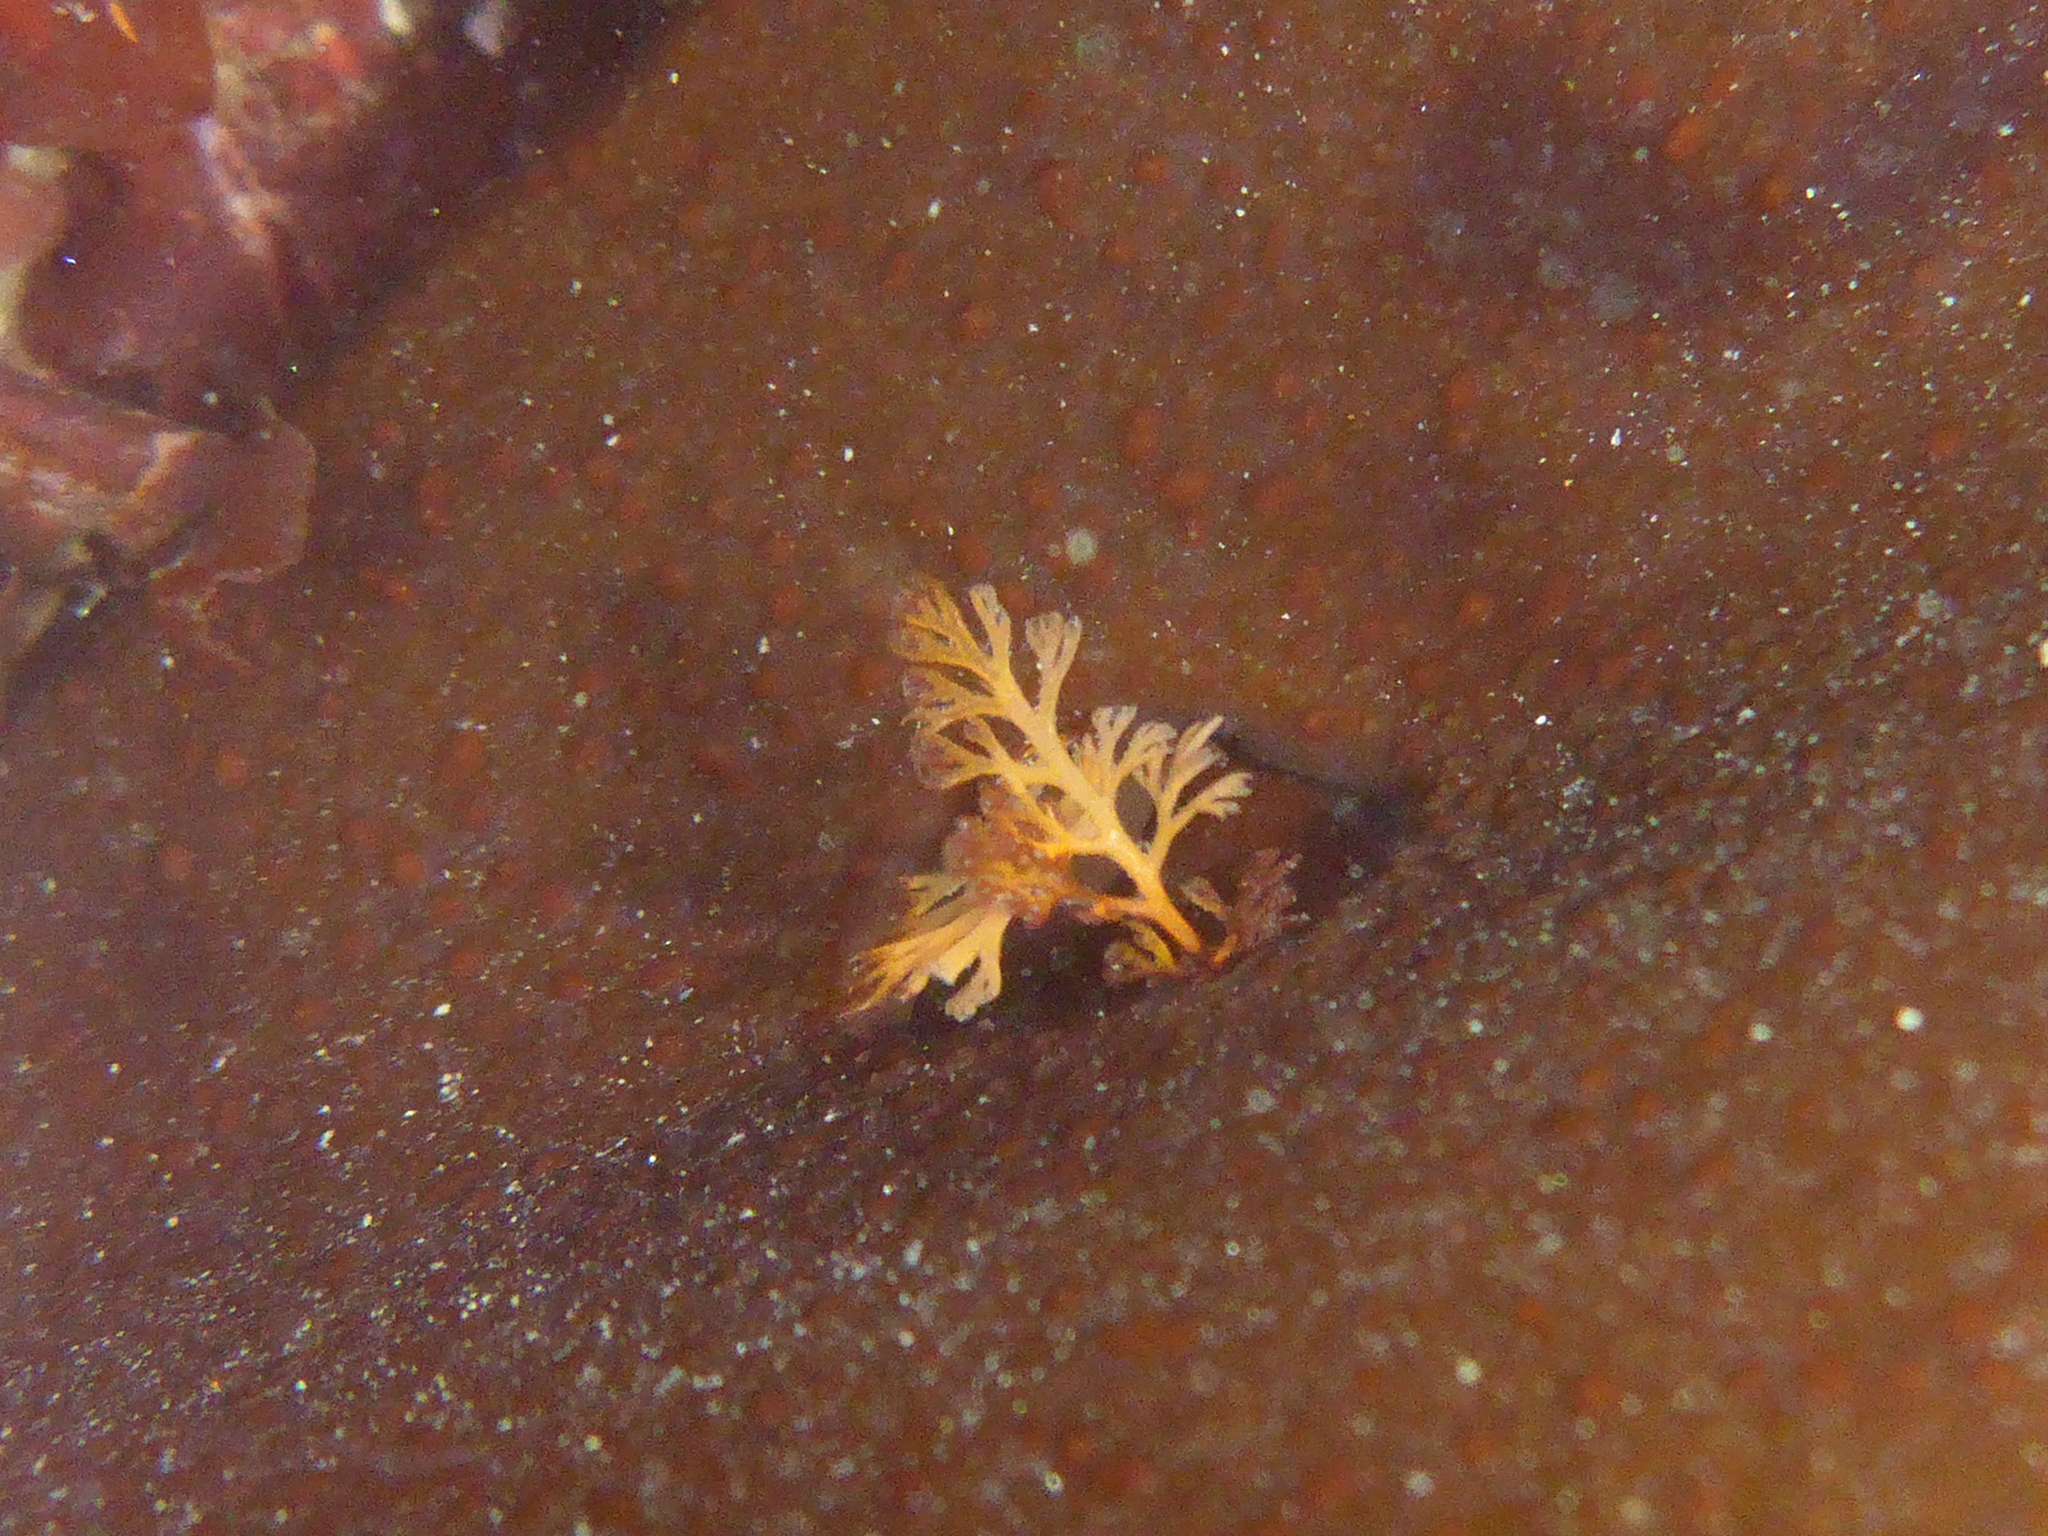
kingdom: Plantae
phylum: Rhodophyta
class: Florideophyceae
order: Ceramiales
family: Ceramiaceae
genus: Microcladia
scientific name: Microcladia coulteri
